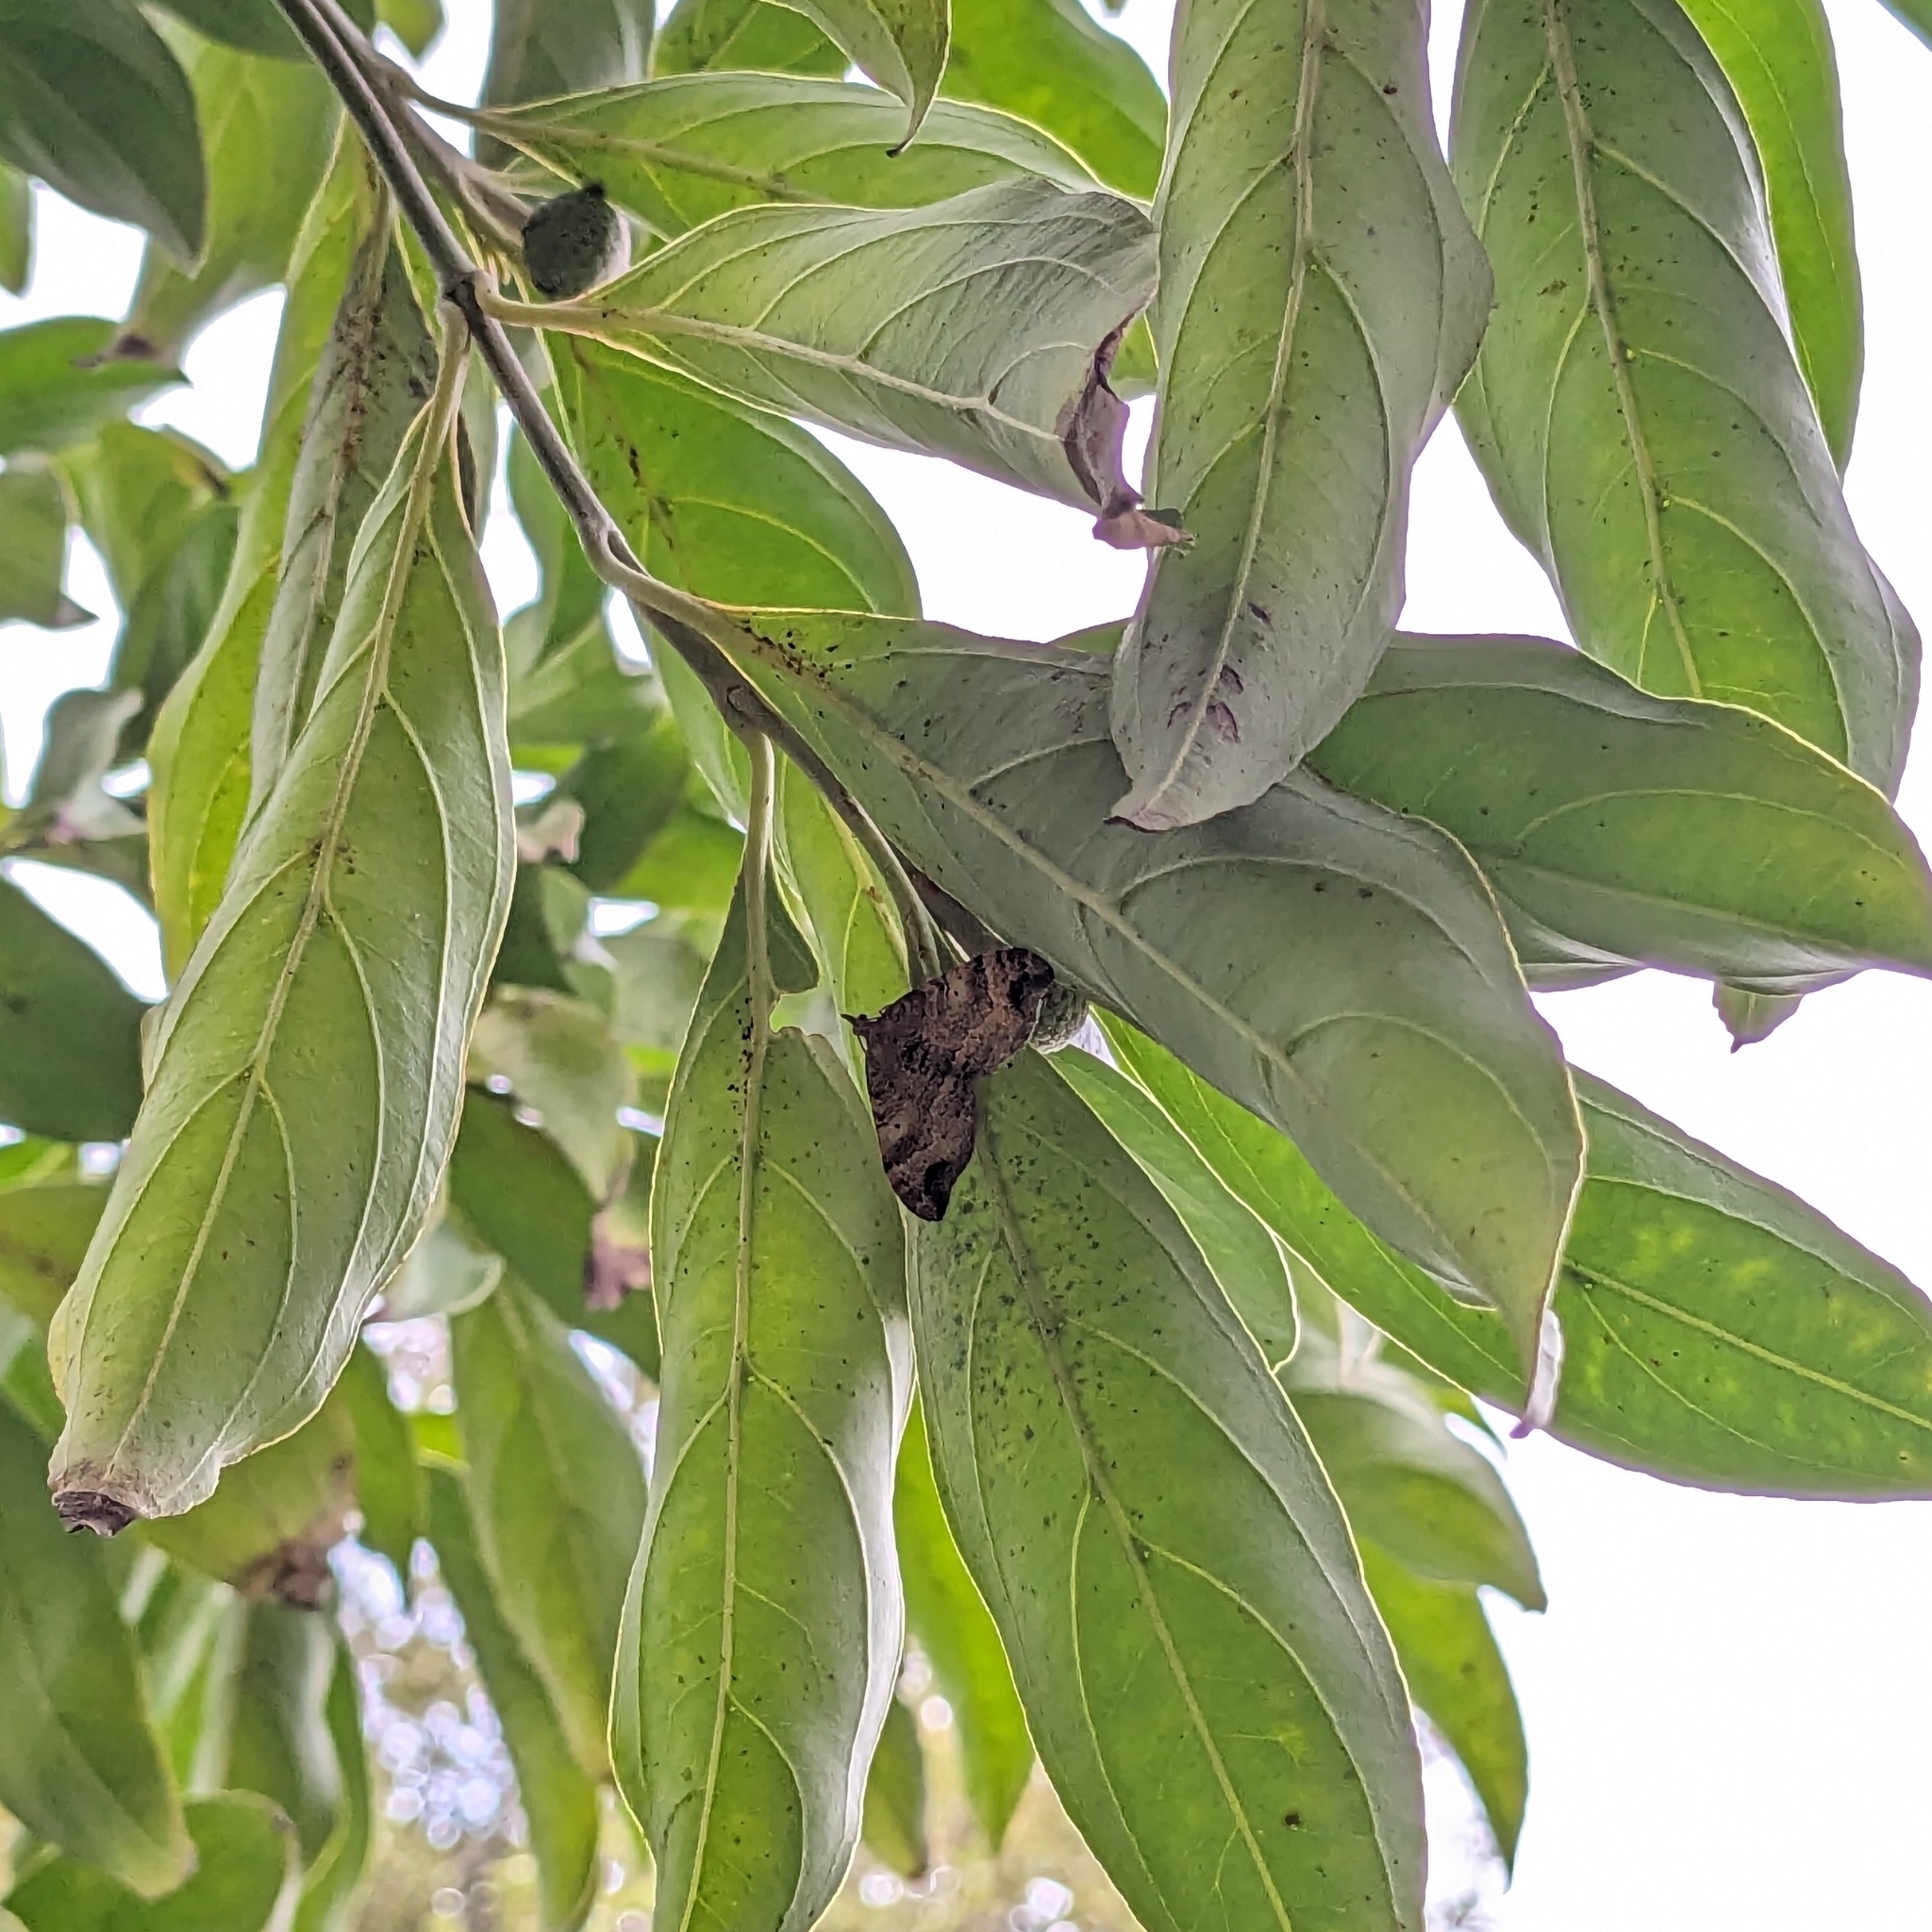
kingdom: Animalia
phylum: Arthropoda
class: Insecta
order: Lepidoptera
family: Geometridae
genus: Homodotis
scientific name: Homodotis megaspilata
